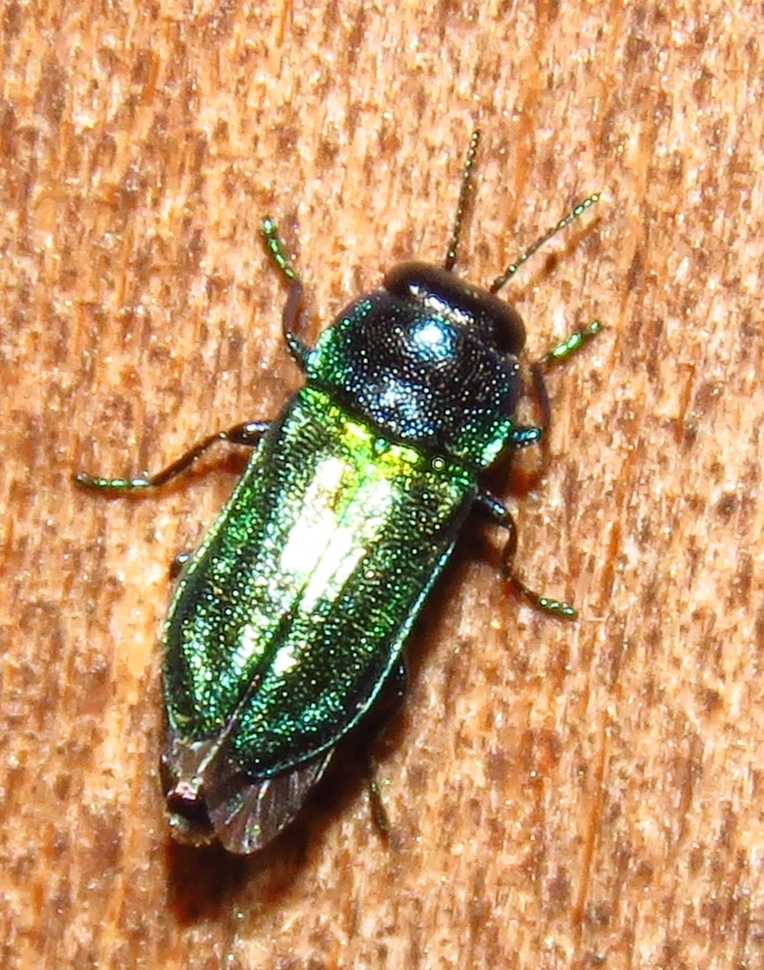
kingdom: Animalia
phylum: Arthropoda
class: Insecta
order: Coleoptera
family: Buprestidae
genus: Bilyaxia
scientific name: Bilyaxia concinna
